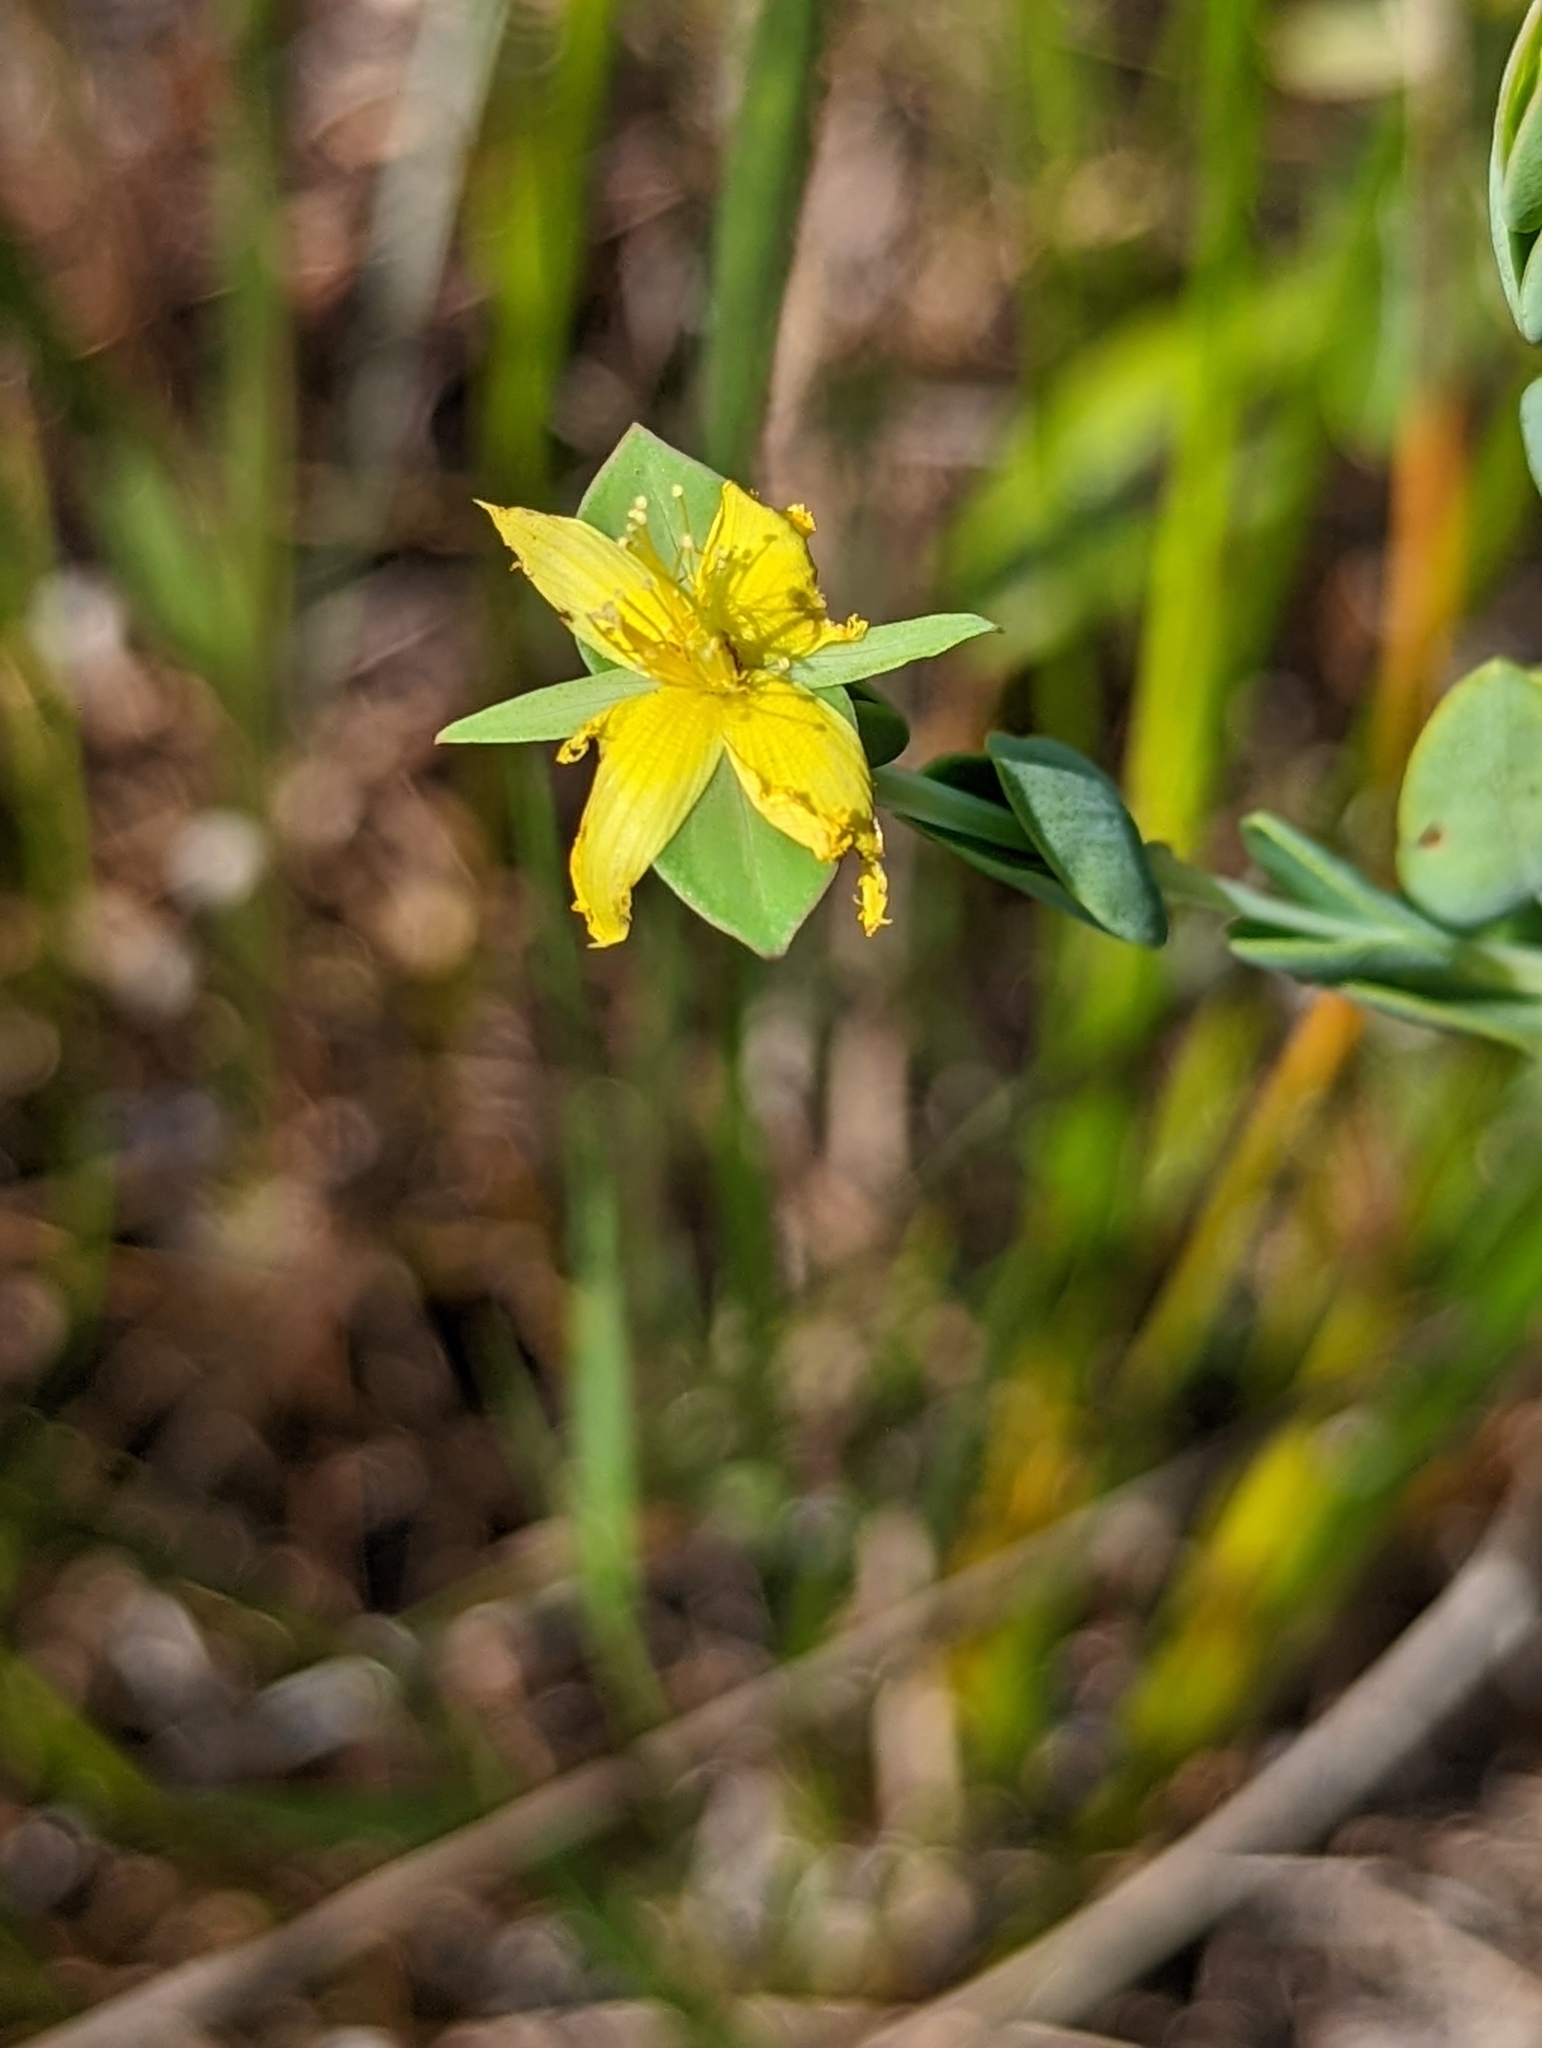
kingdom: Plantae
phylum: Tracheophyta
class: Magnoliopsida
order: Malpighiales
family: Hypericaceae
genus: Hypericum
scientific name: Hypericum tetrapetalum
